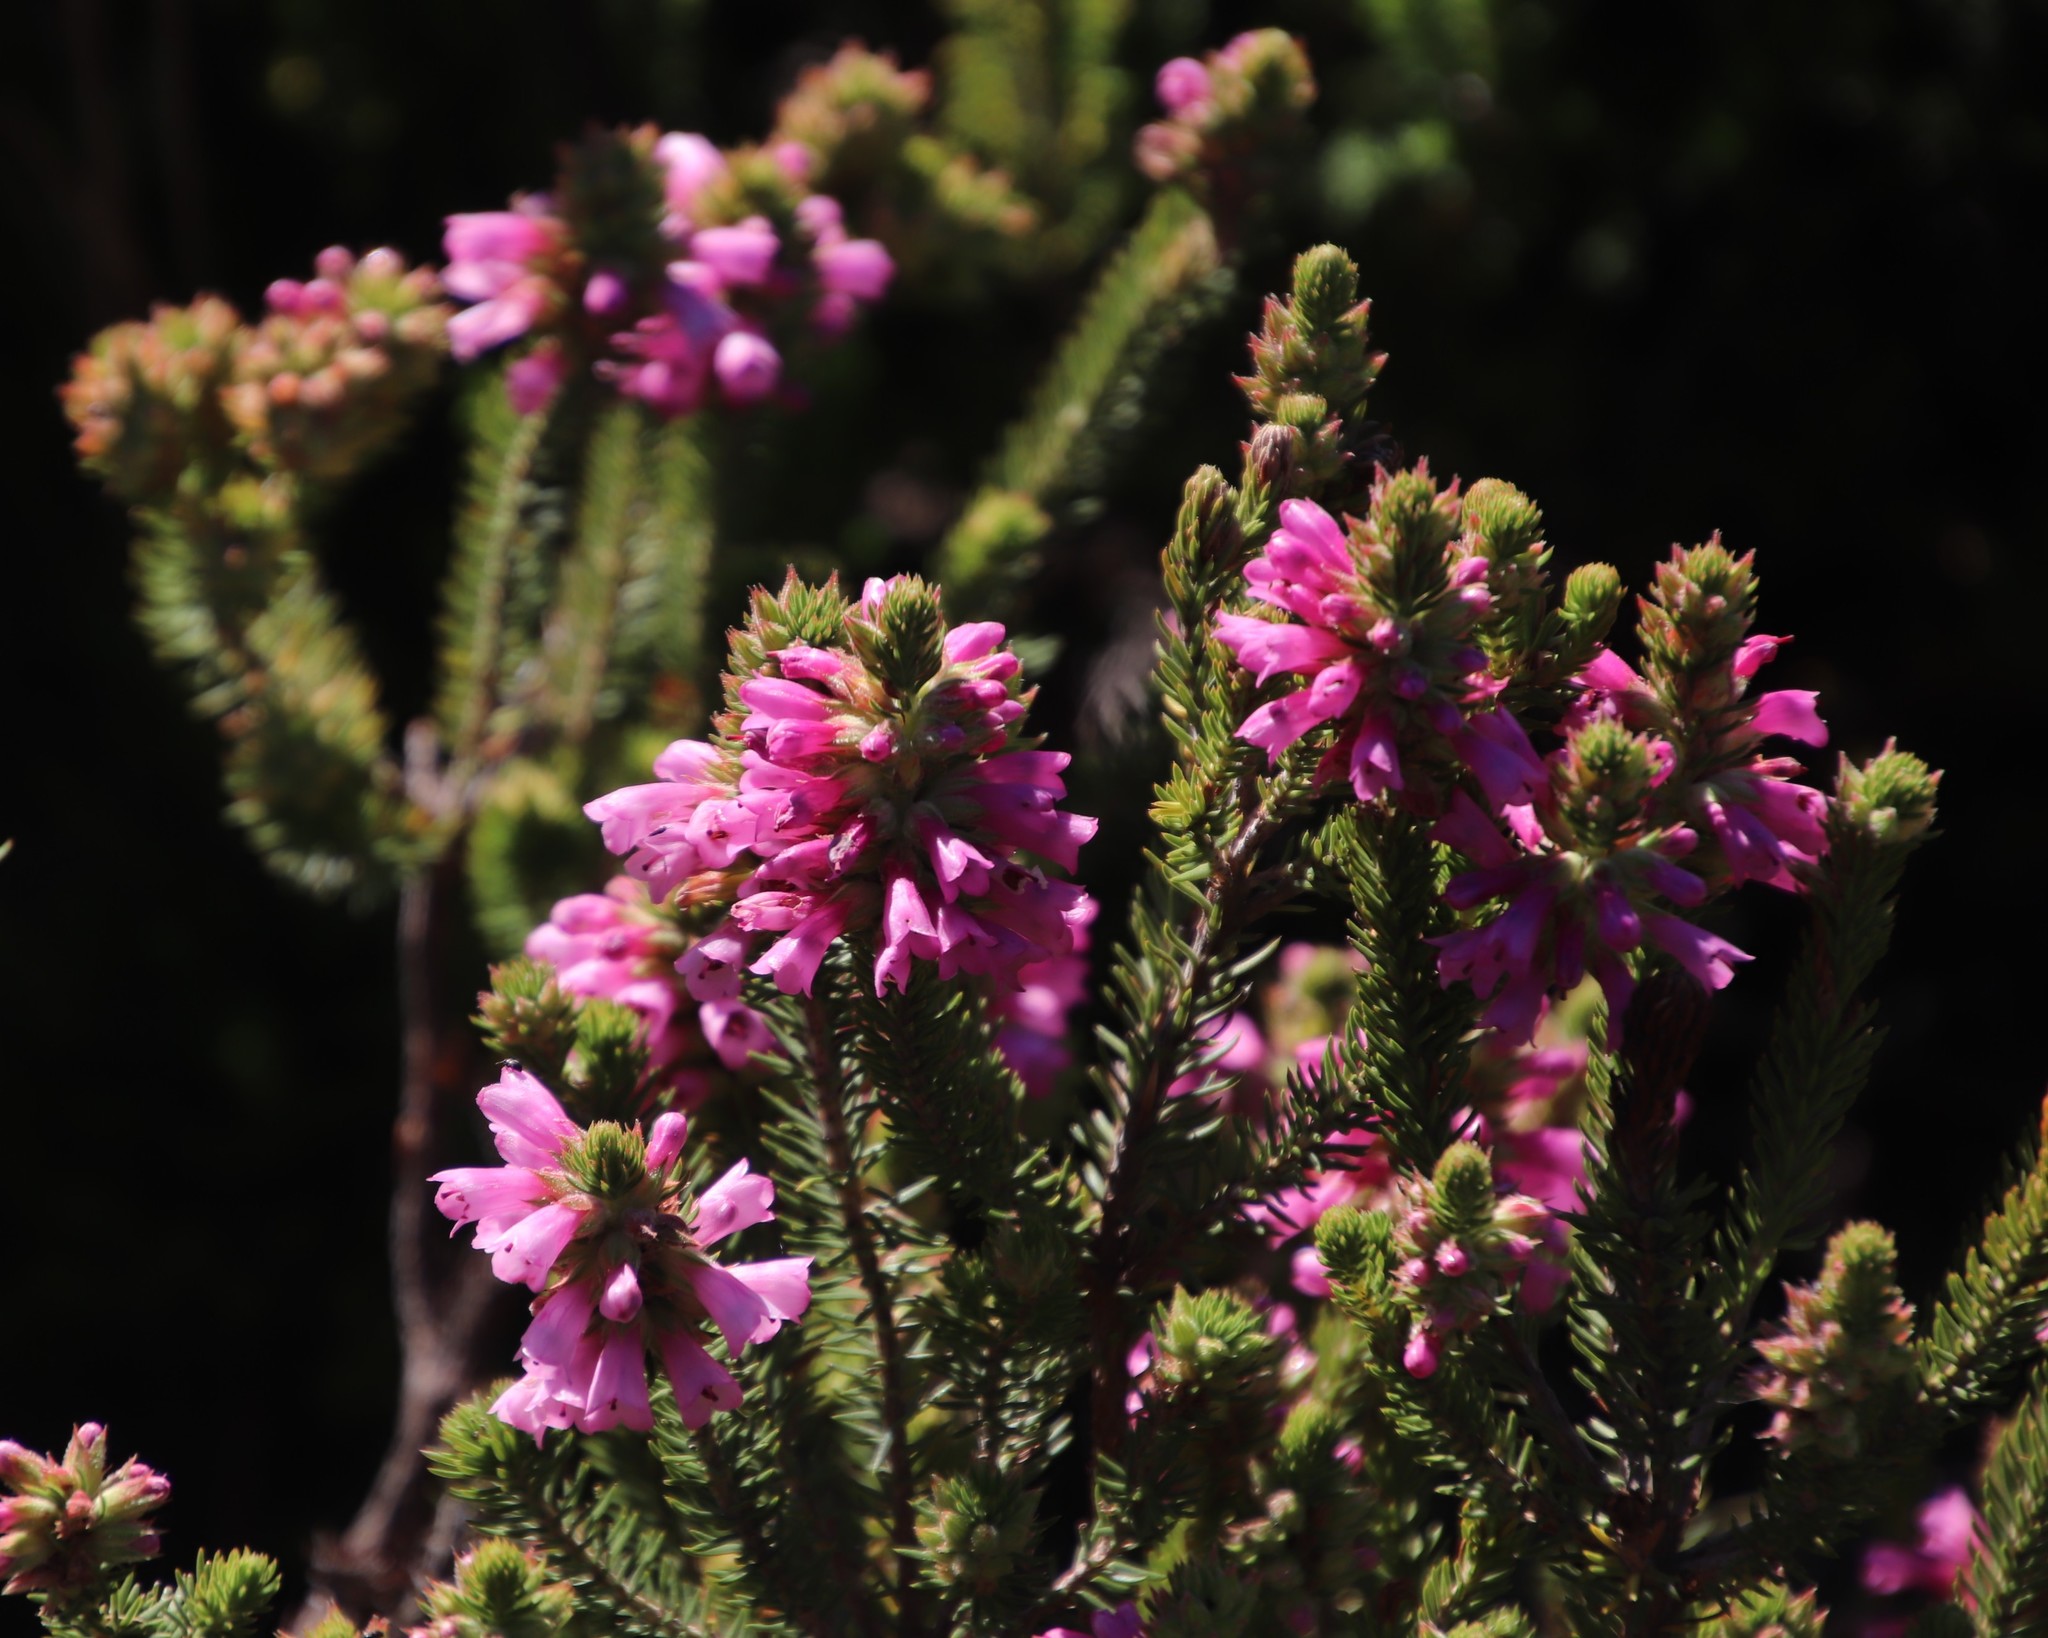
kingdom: Plantae
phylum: Tracheophyta
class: Magnoliopsida
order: Ericales
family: Ericaceae
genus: Erica
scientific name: Erica abietina
